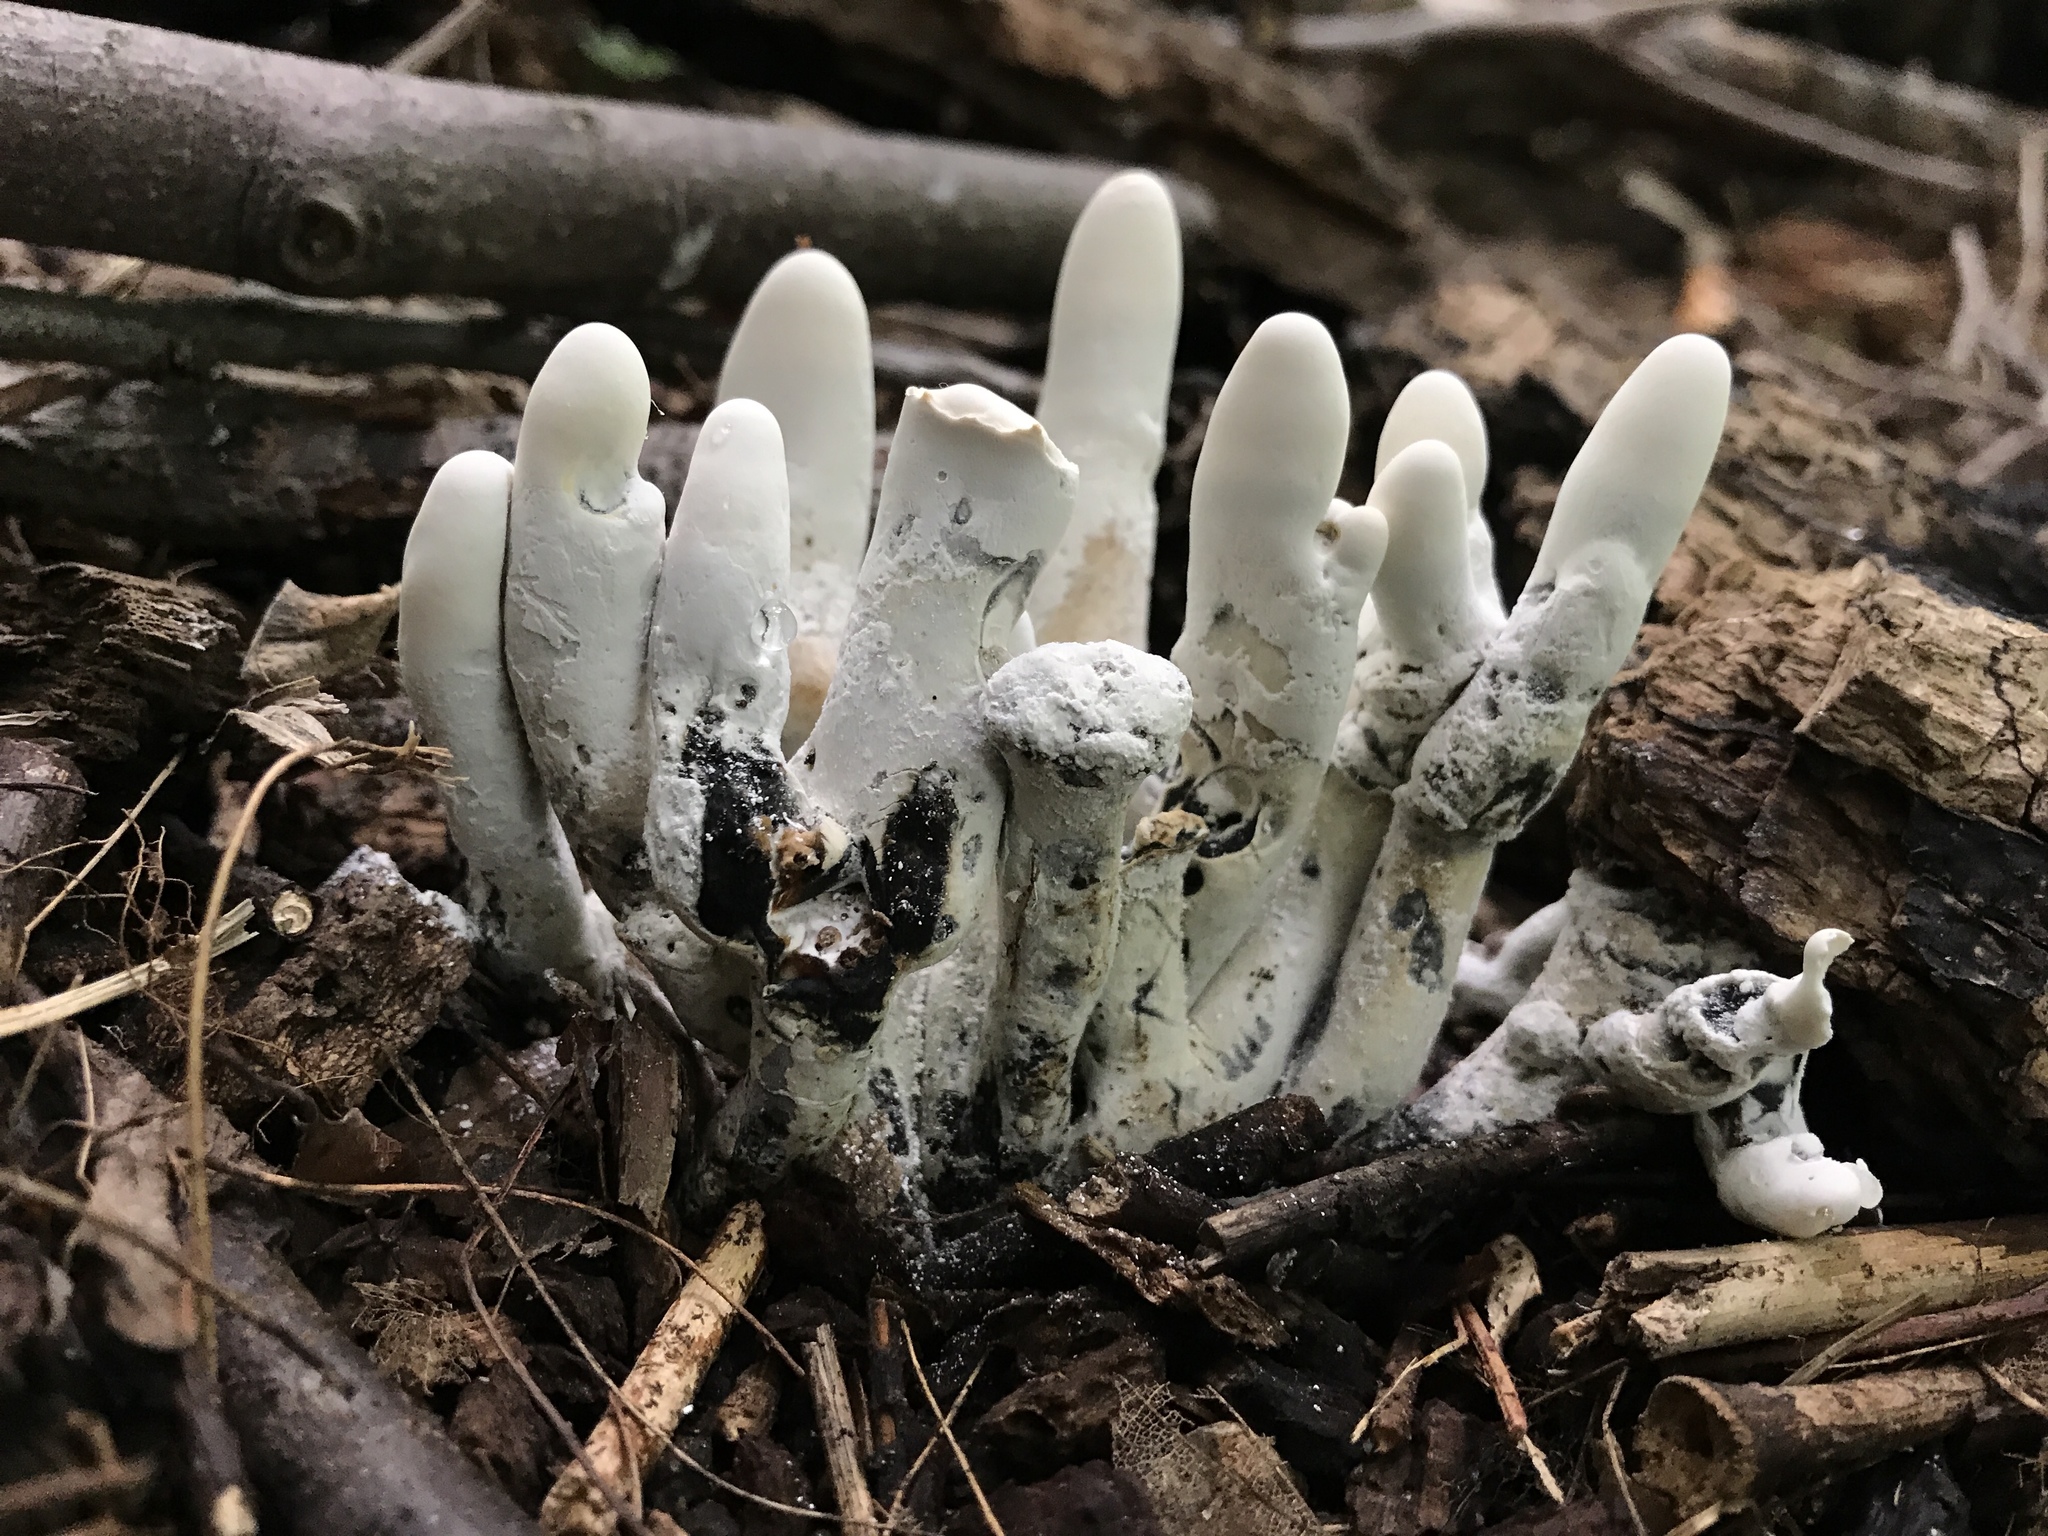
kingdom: Fungi
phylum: Ascomycota
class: Sordariomycetes
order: Xylariales
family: Xylariaceae
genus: Xylaria
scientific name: Xylaria polymorpha
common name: Dead man's fingers
